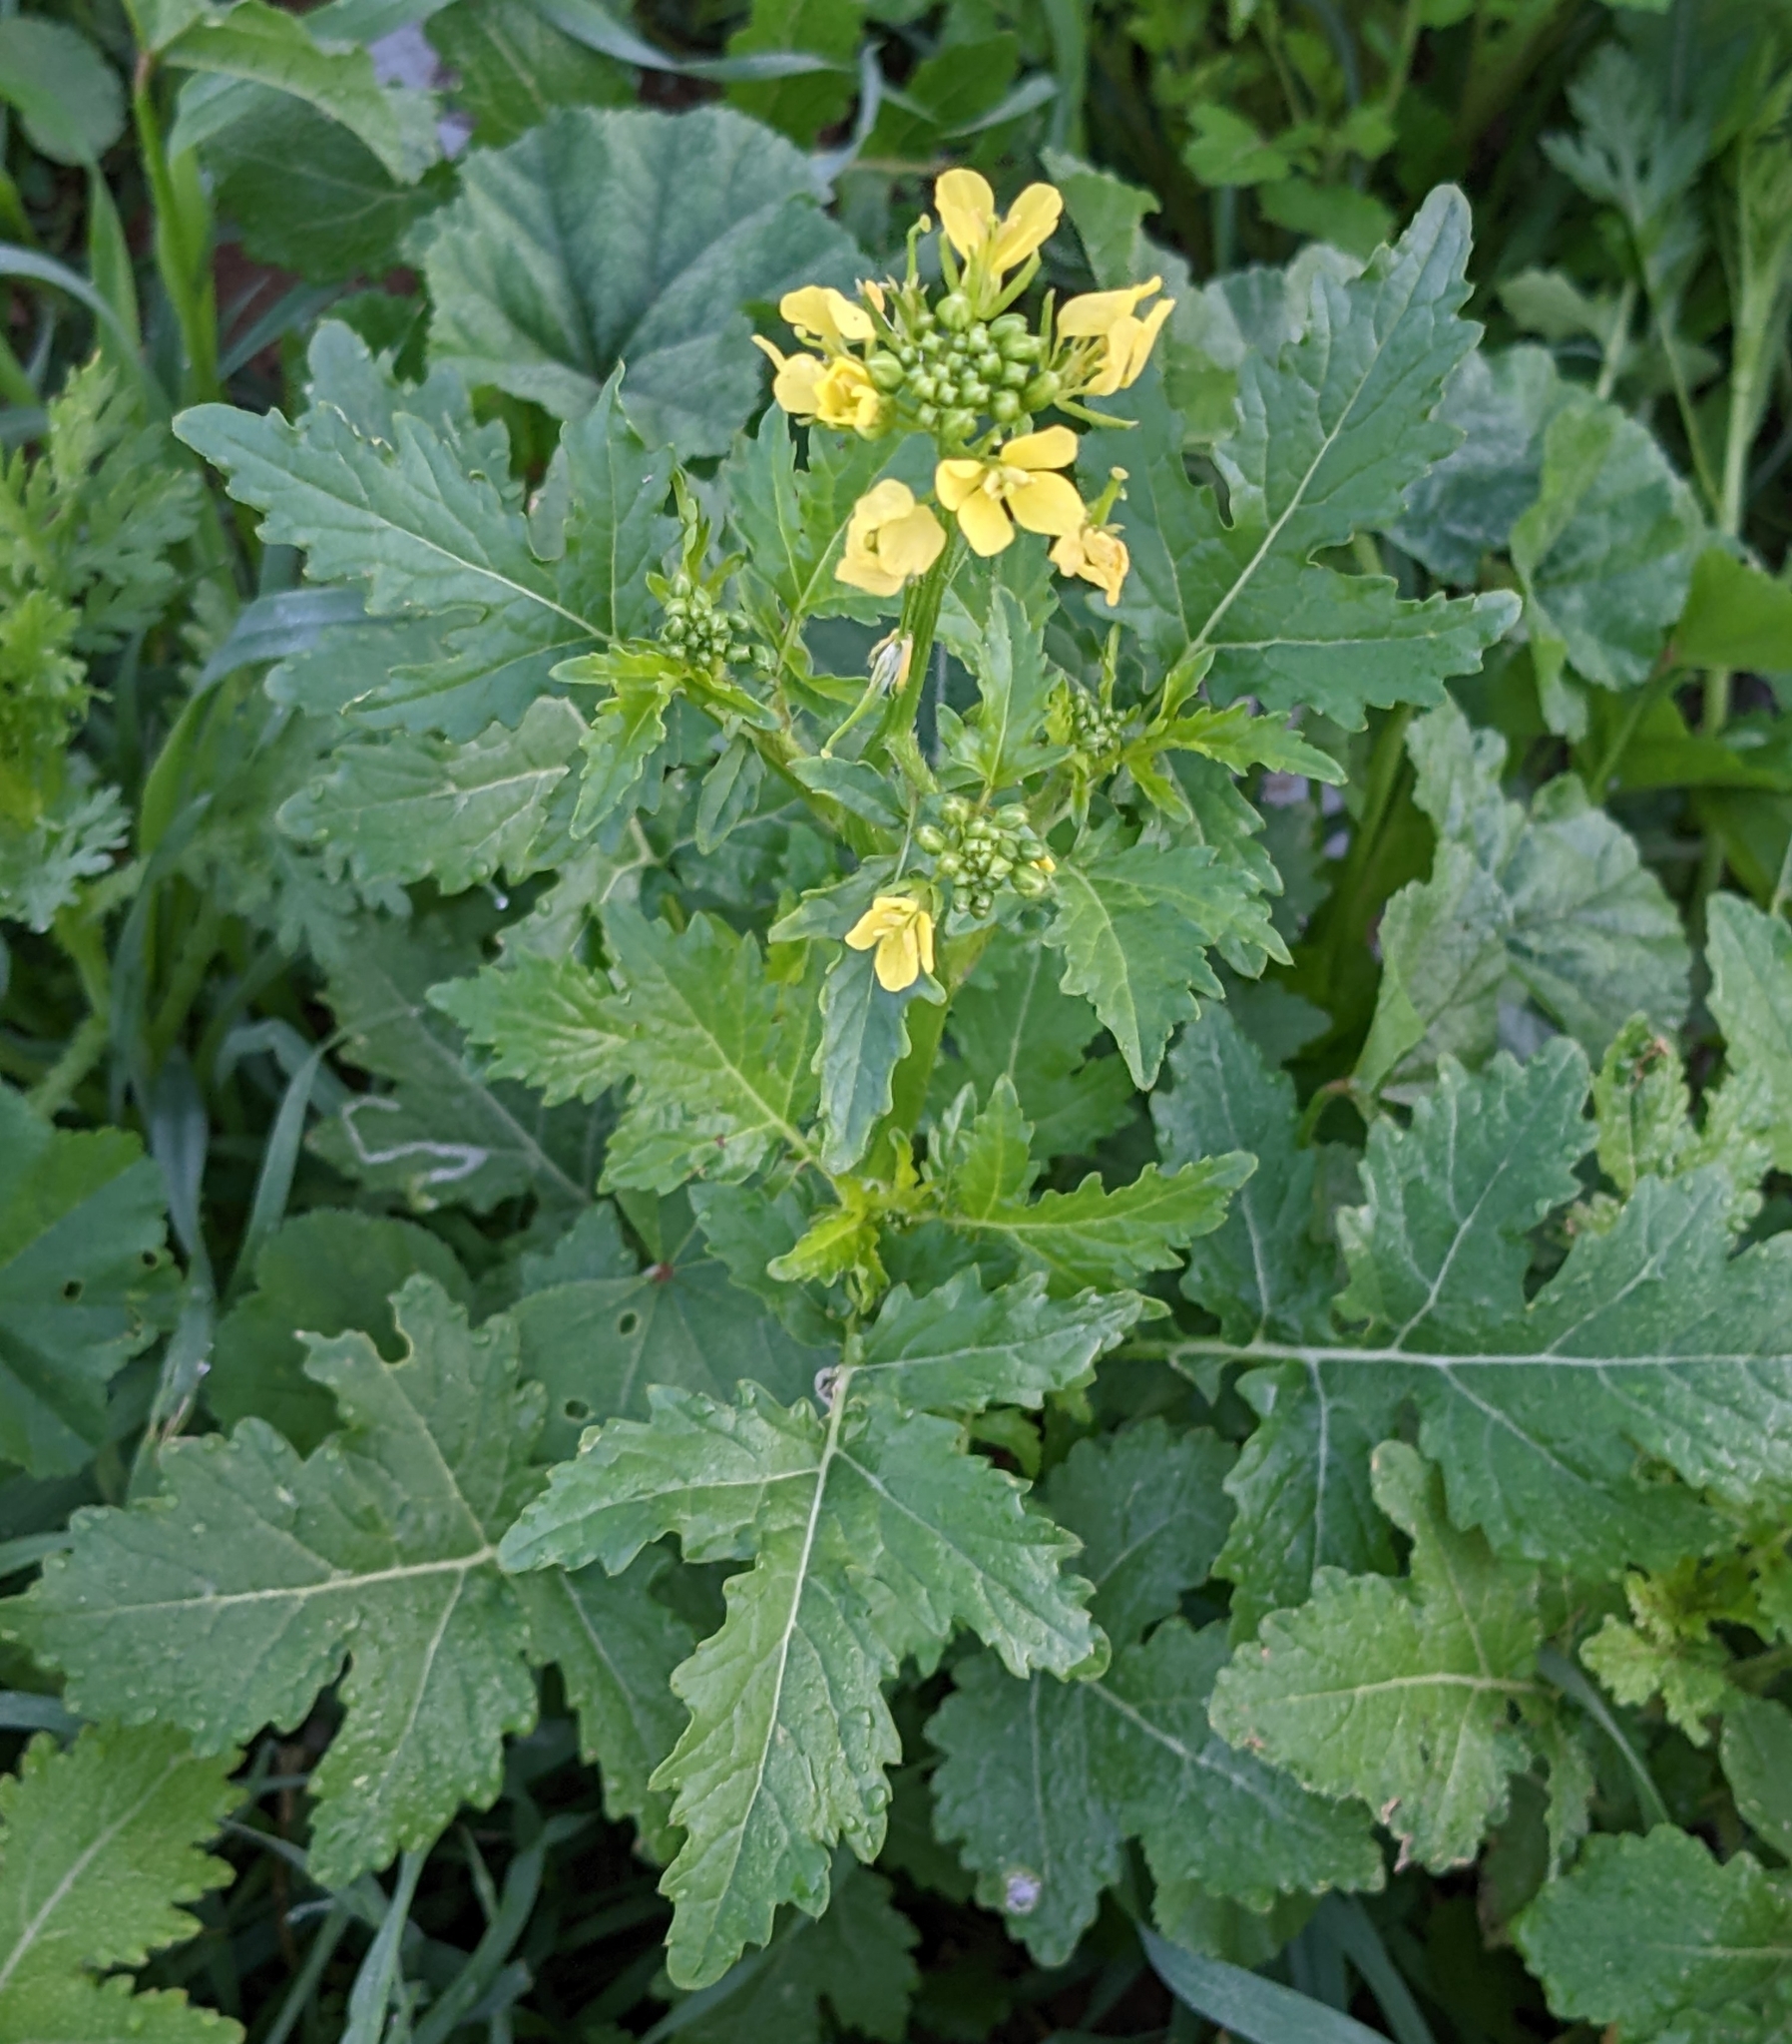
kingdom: Plantae
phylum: Tracheophyta
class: Magnoliopsida
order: Brassicales
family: Brassicaceae
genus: Sinapis
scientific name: Sinapis alba
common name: White mustard
